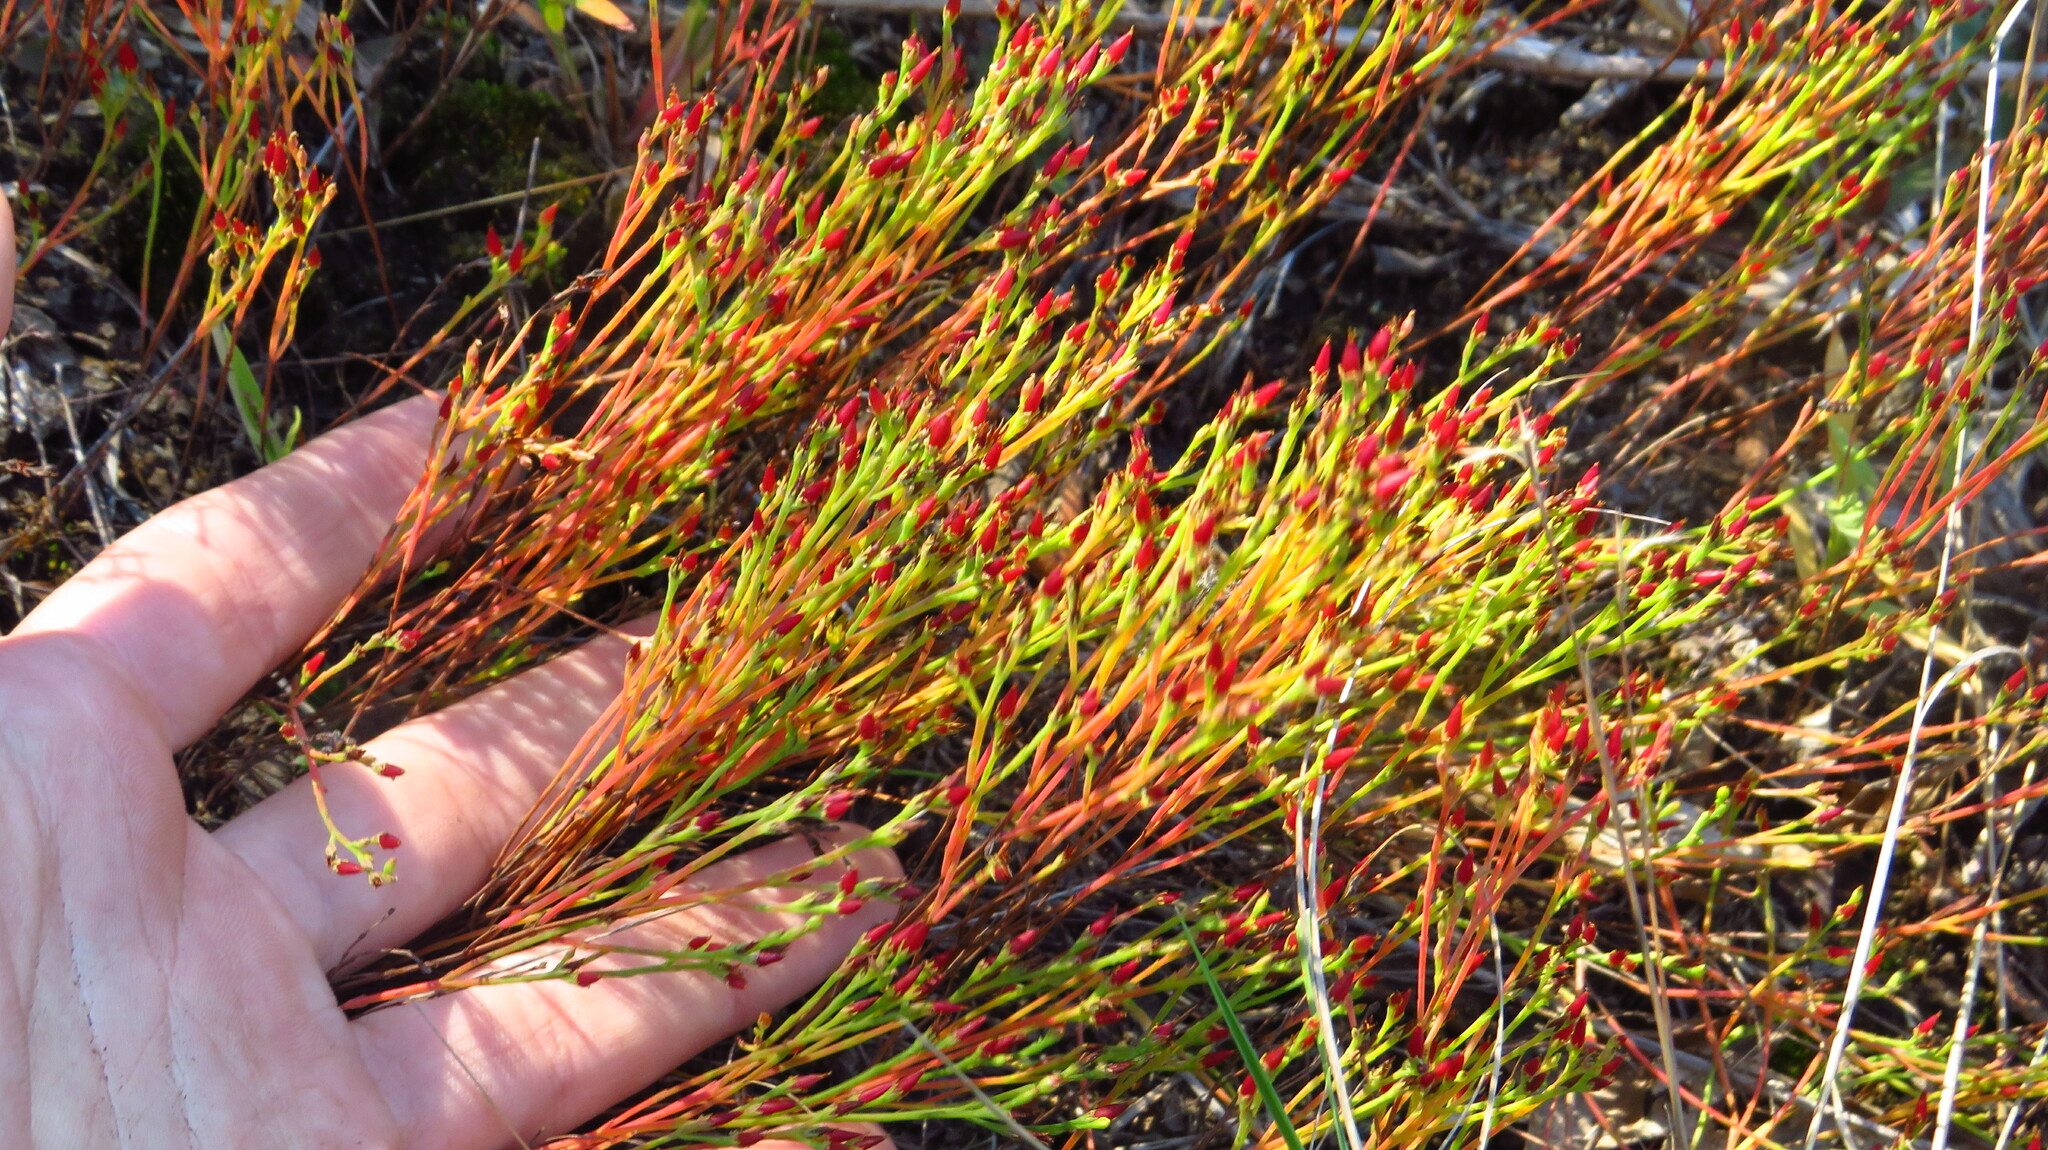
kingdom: Plantae
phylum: Tracheophyta
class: Magnoliopsida
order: Malpighiales
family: Hypericaceae
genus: Hypericum
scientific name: Hypericum gentianoides
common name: Gentian-leaved st. john's-wort
